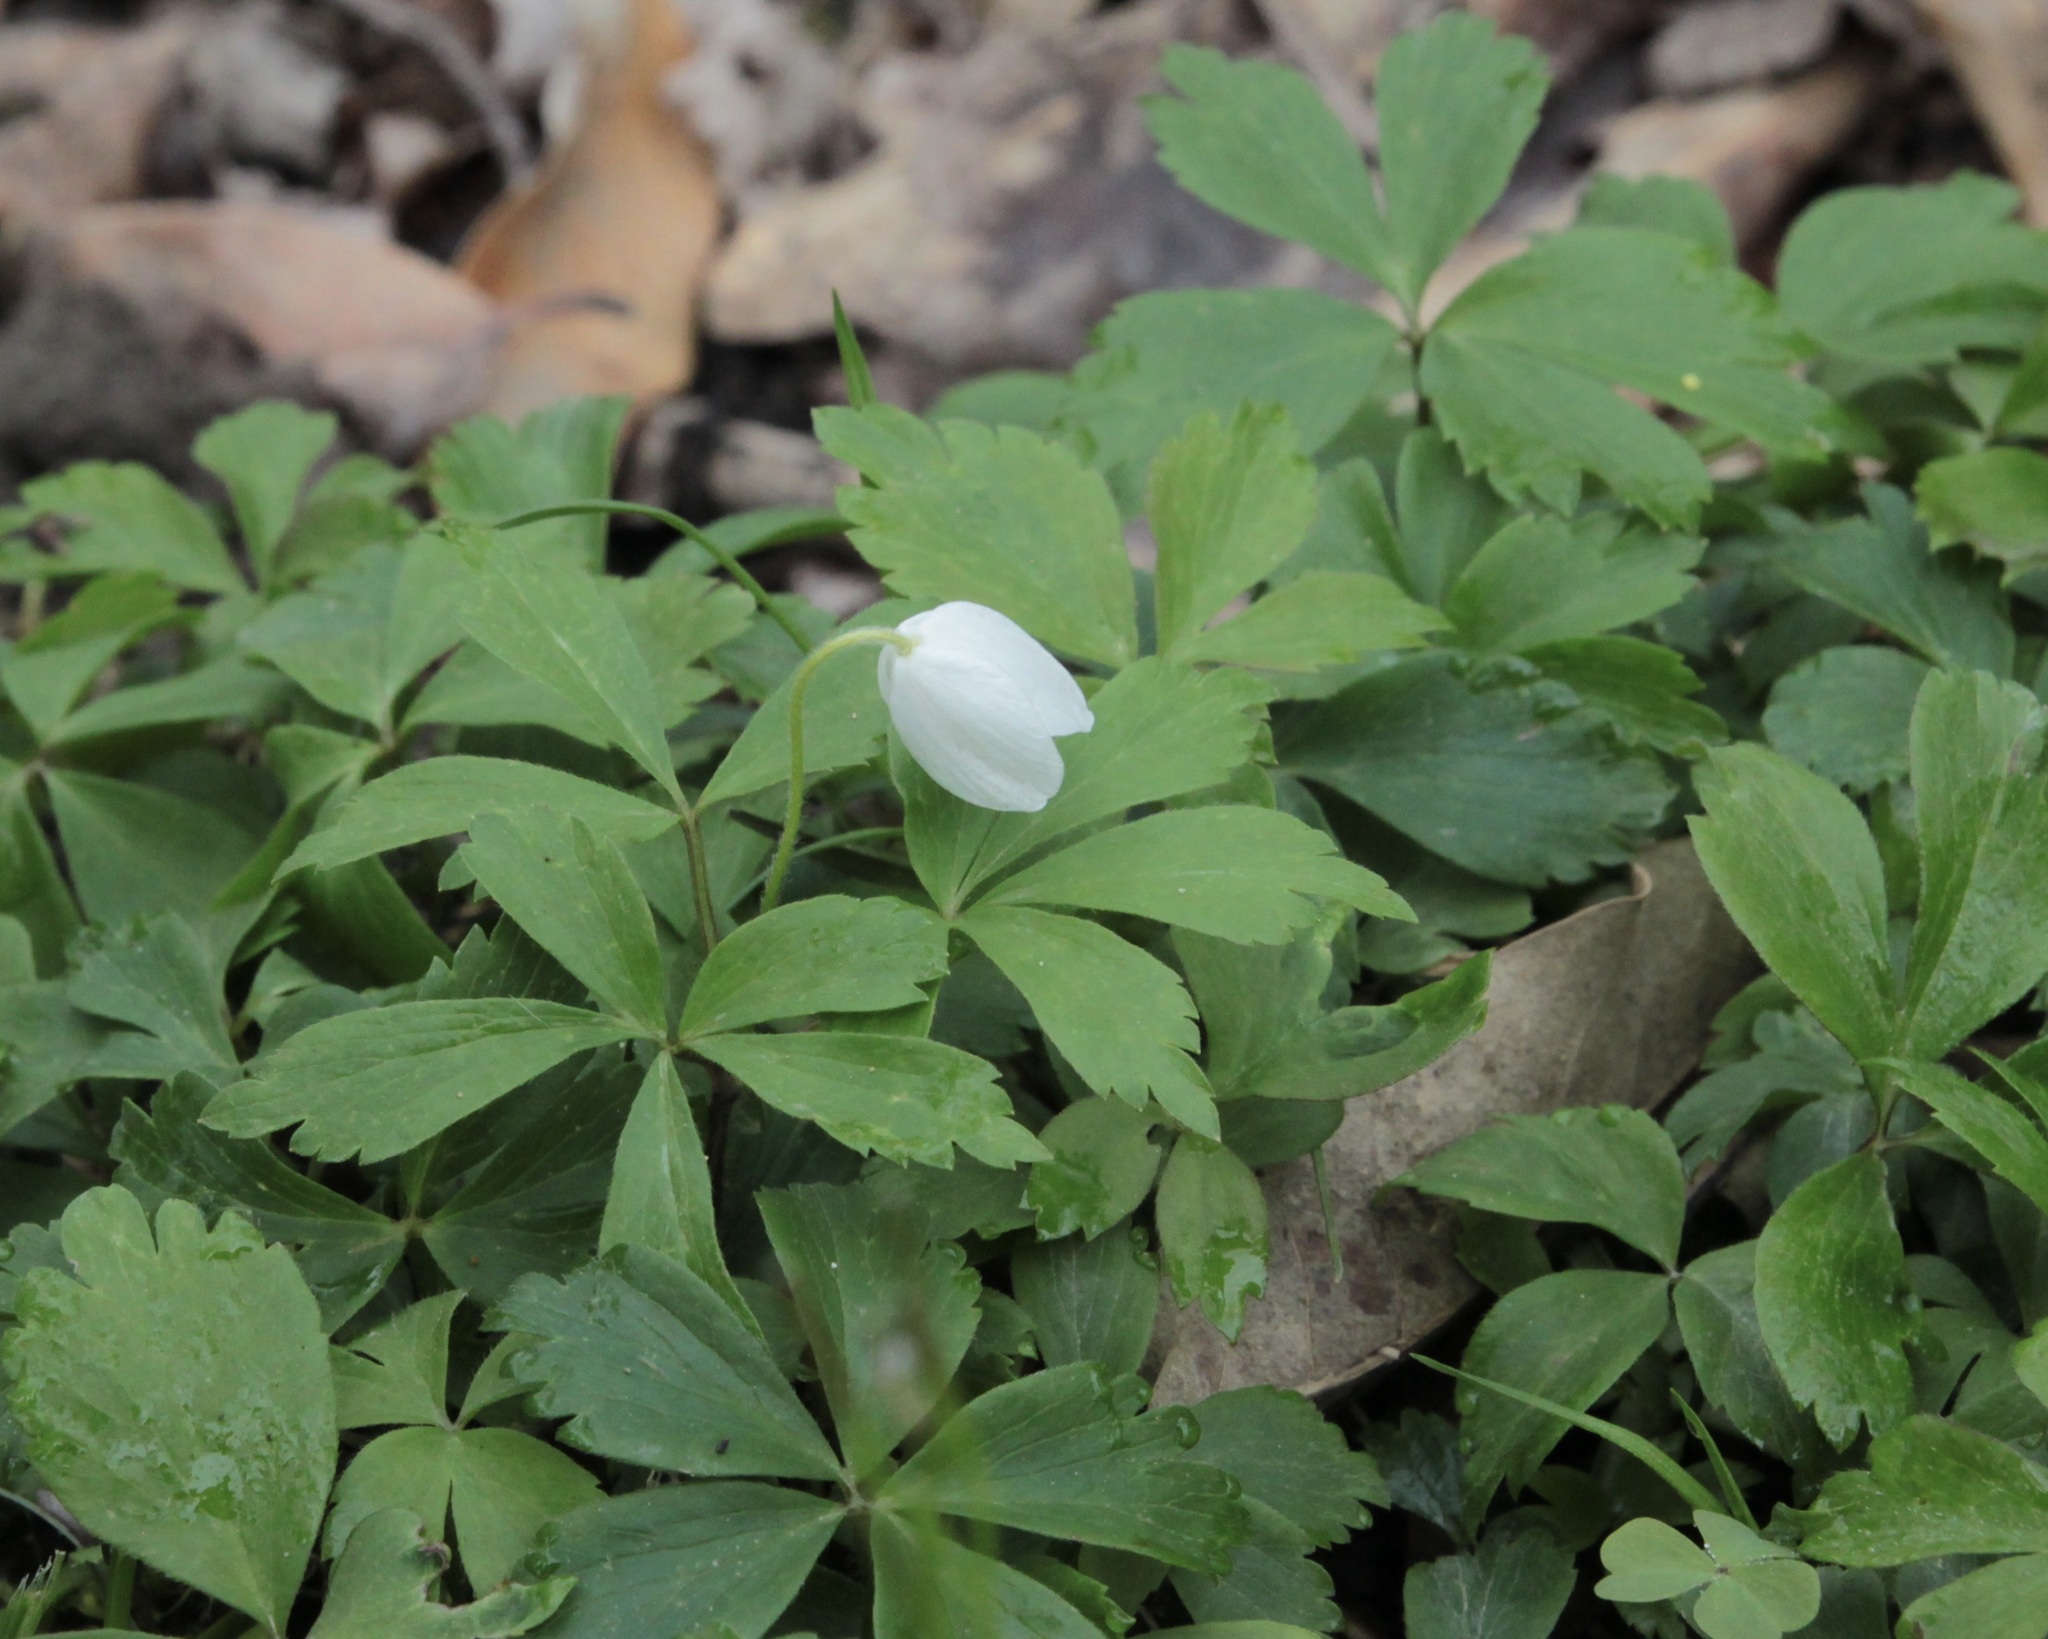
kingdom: Plantae
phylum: Tracheophyta
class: Magnoliopsida
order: Ranunculales
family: Ranunculaceae
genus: Anemone
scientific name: Anemone quinquefolia
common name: Wood anemone
